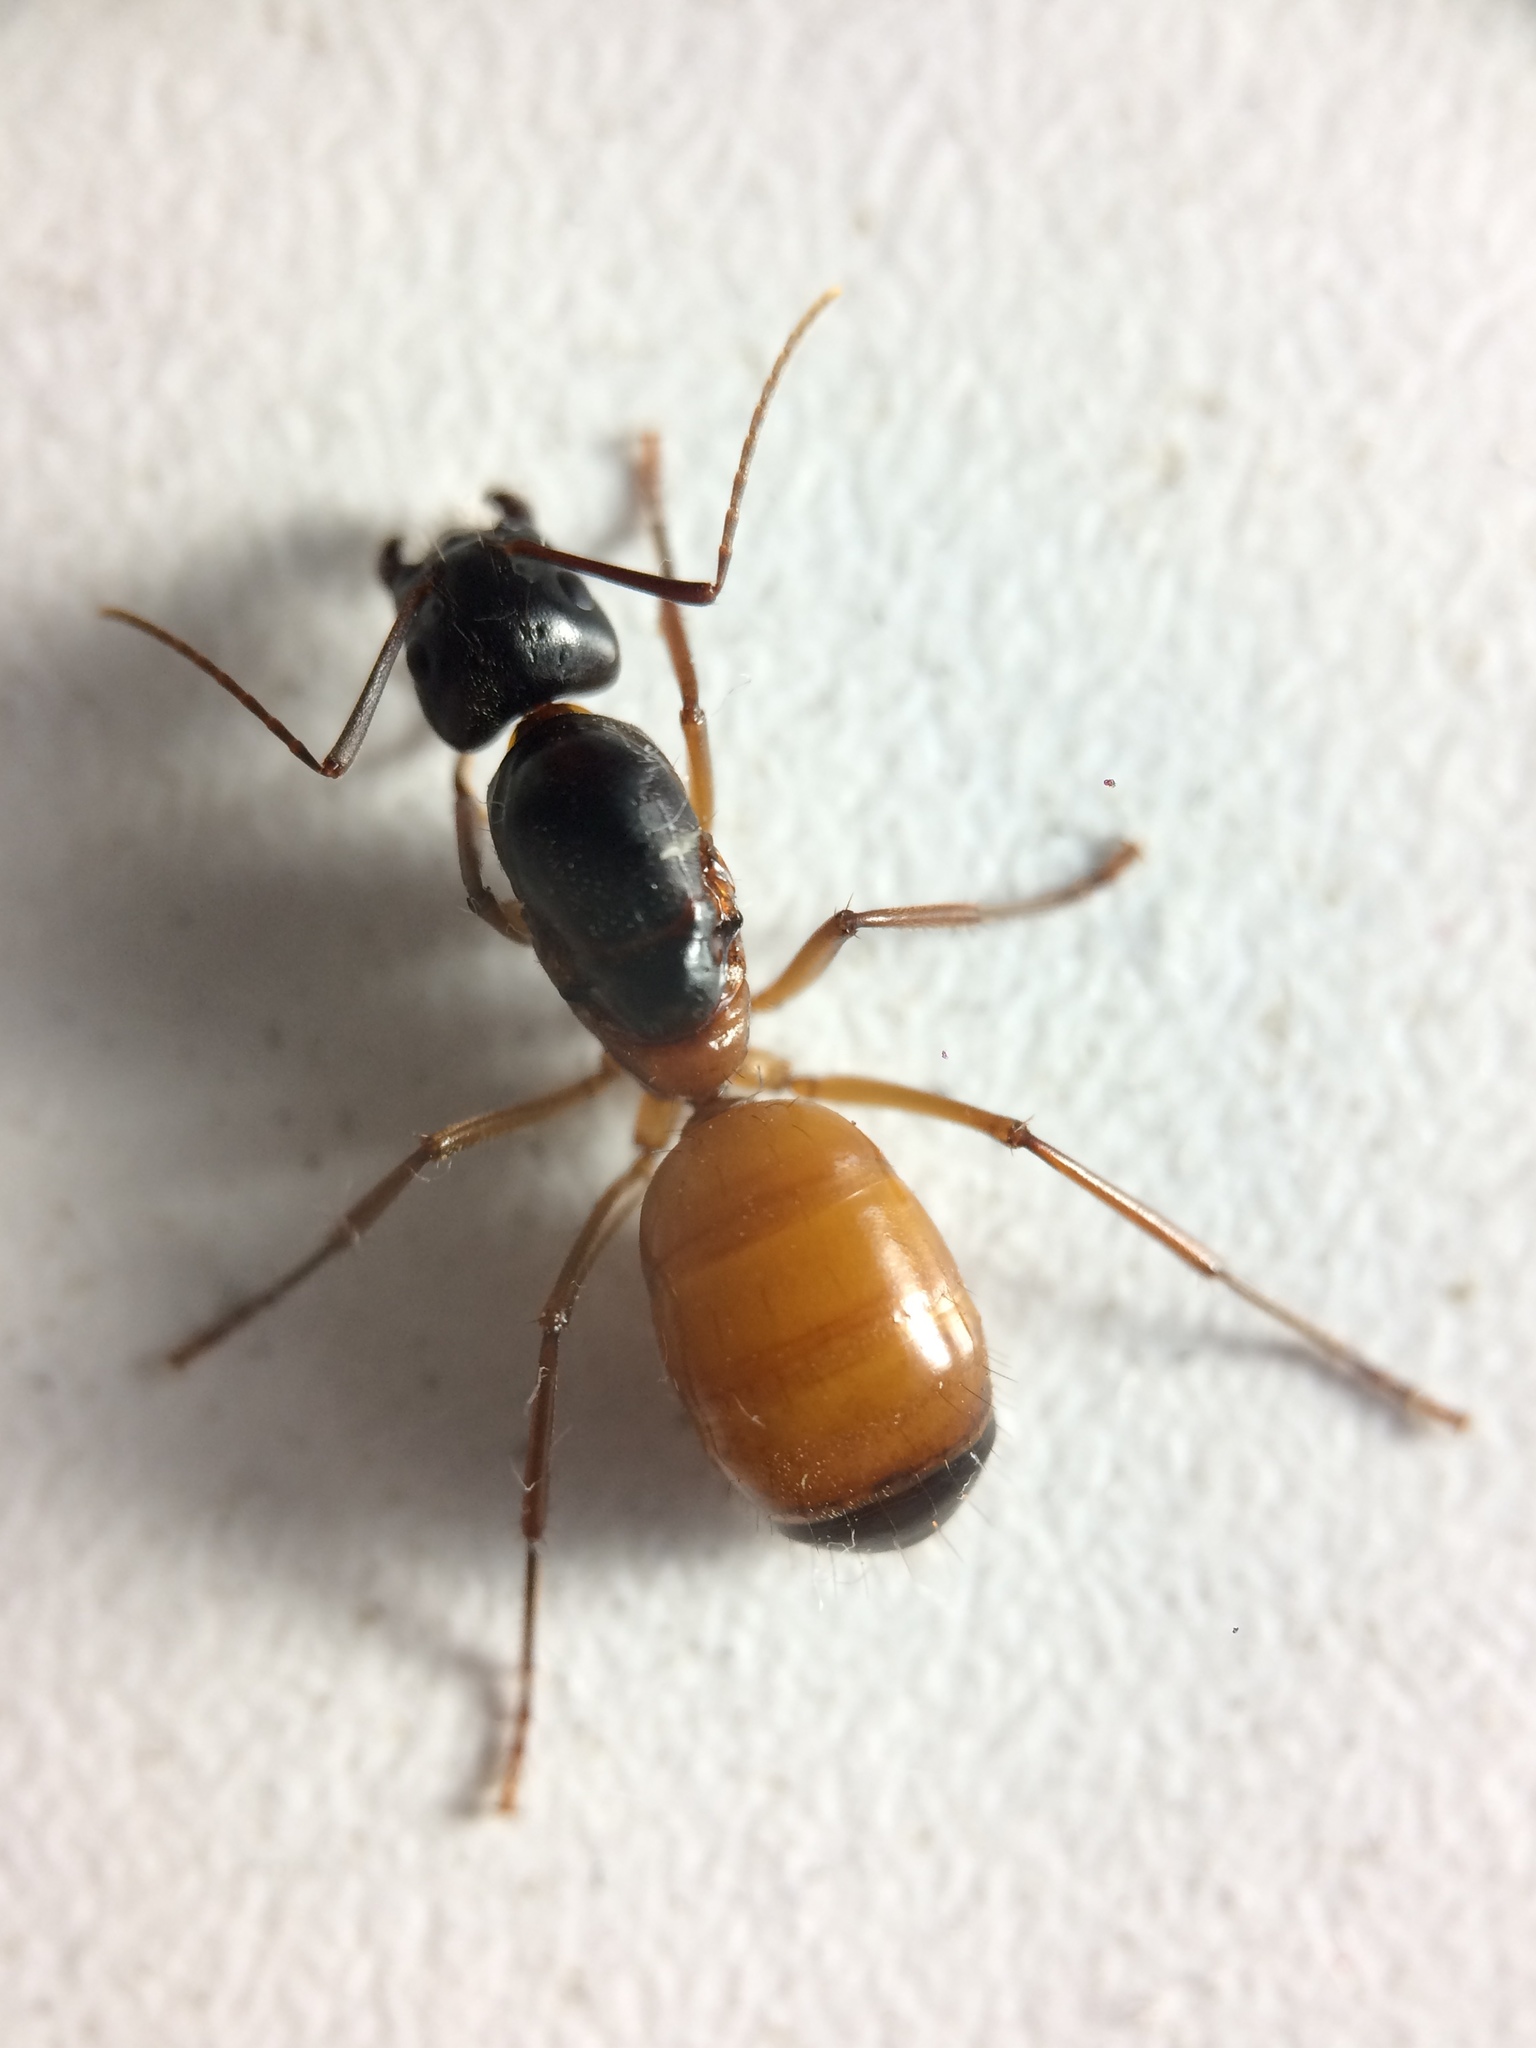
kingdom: Animalia
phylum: Arthropoda
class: Insecta
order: Hymenoptera
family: Formicidae
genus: Camponotus
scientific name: Camponotus semitestaceus
